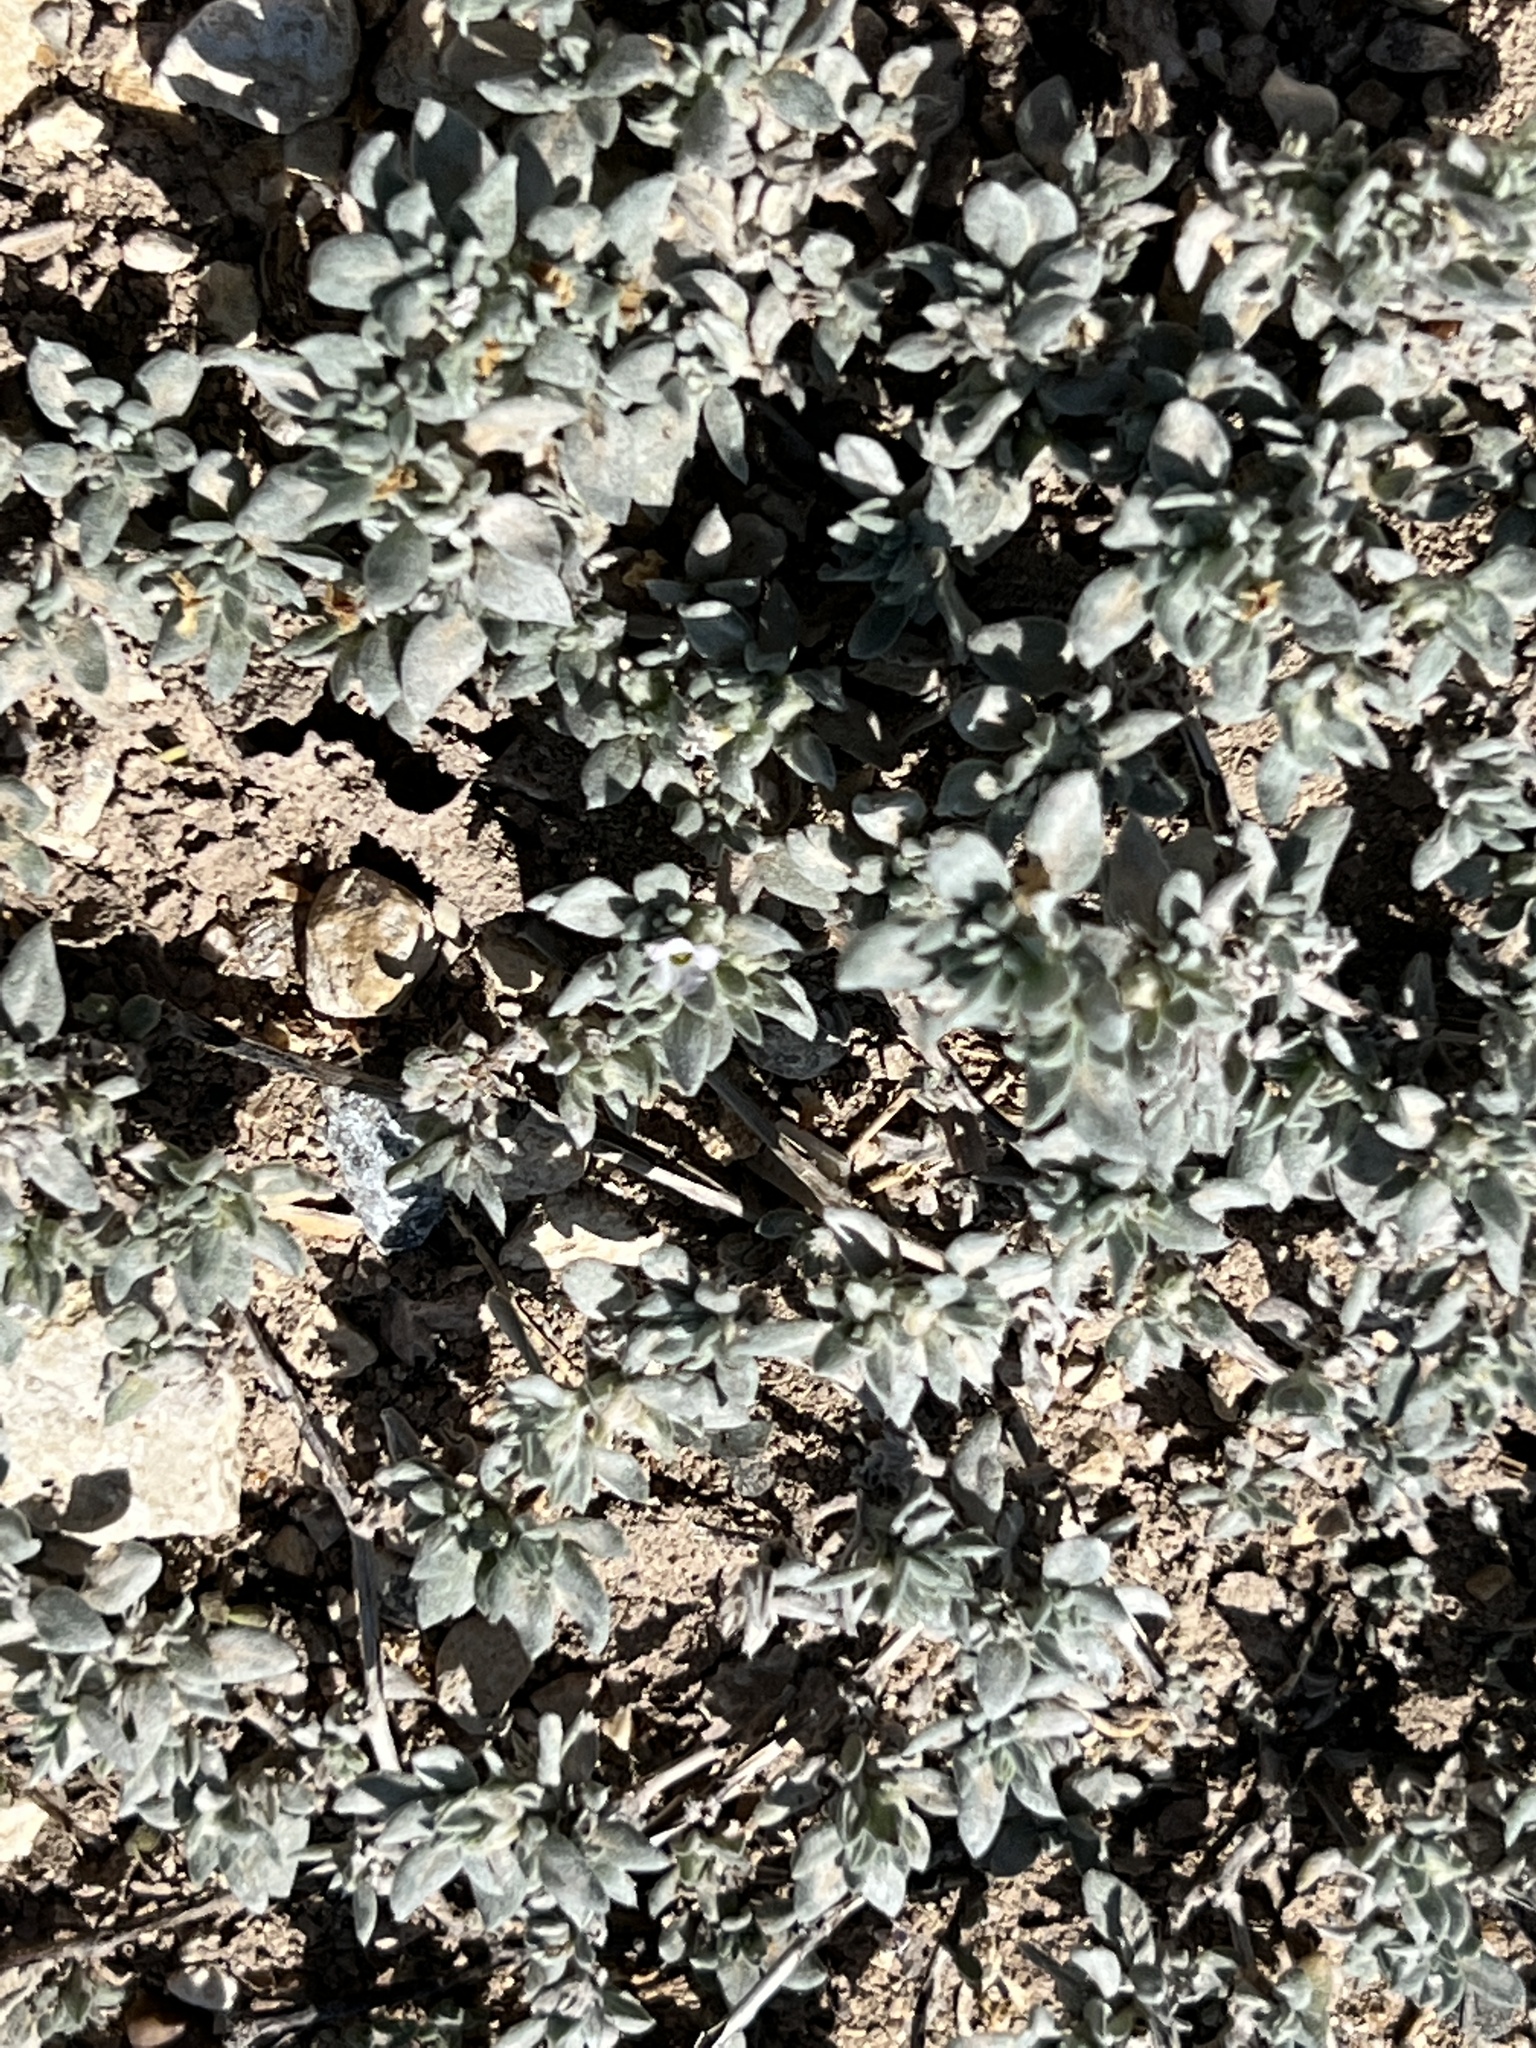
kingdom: Plantae
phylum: Tracheophyta
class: Magnoliopsida
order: Boraginales
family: Ehretiaceae
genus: Tiquilia
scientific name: Tiquilia canescens
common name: Hairy tiquilia
